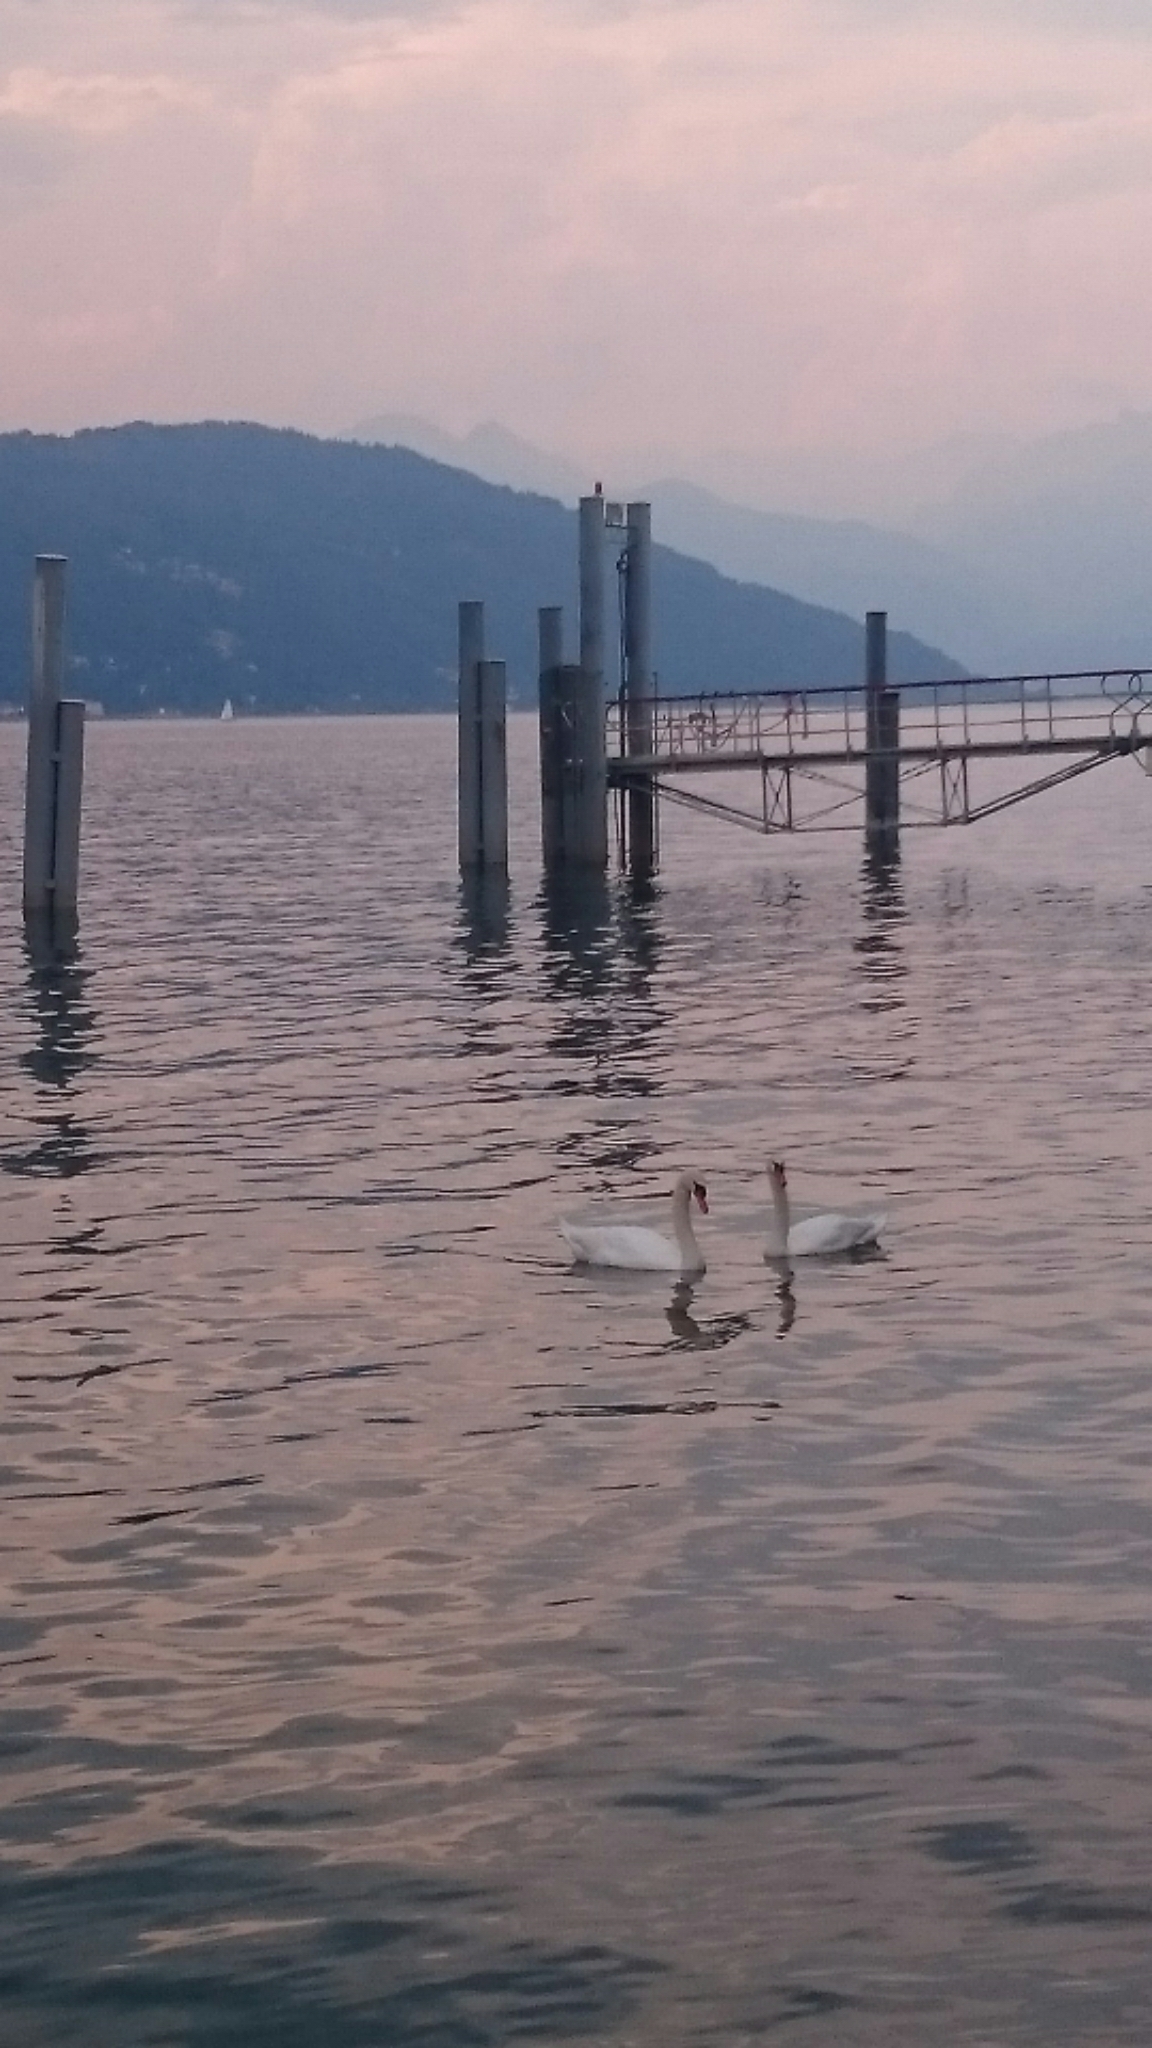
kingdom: Animalia
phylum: Chordata
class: Aves
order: Anseriformes
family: Anatidae
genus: Cygnus
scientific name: Cygnus olor
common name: Mute swan
